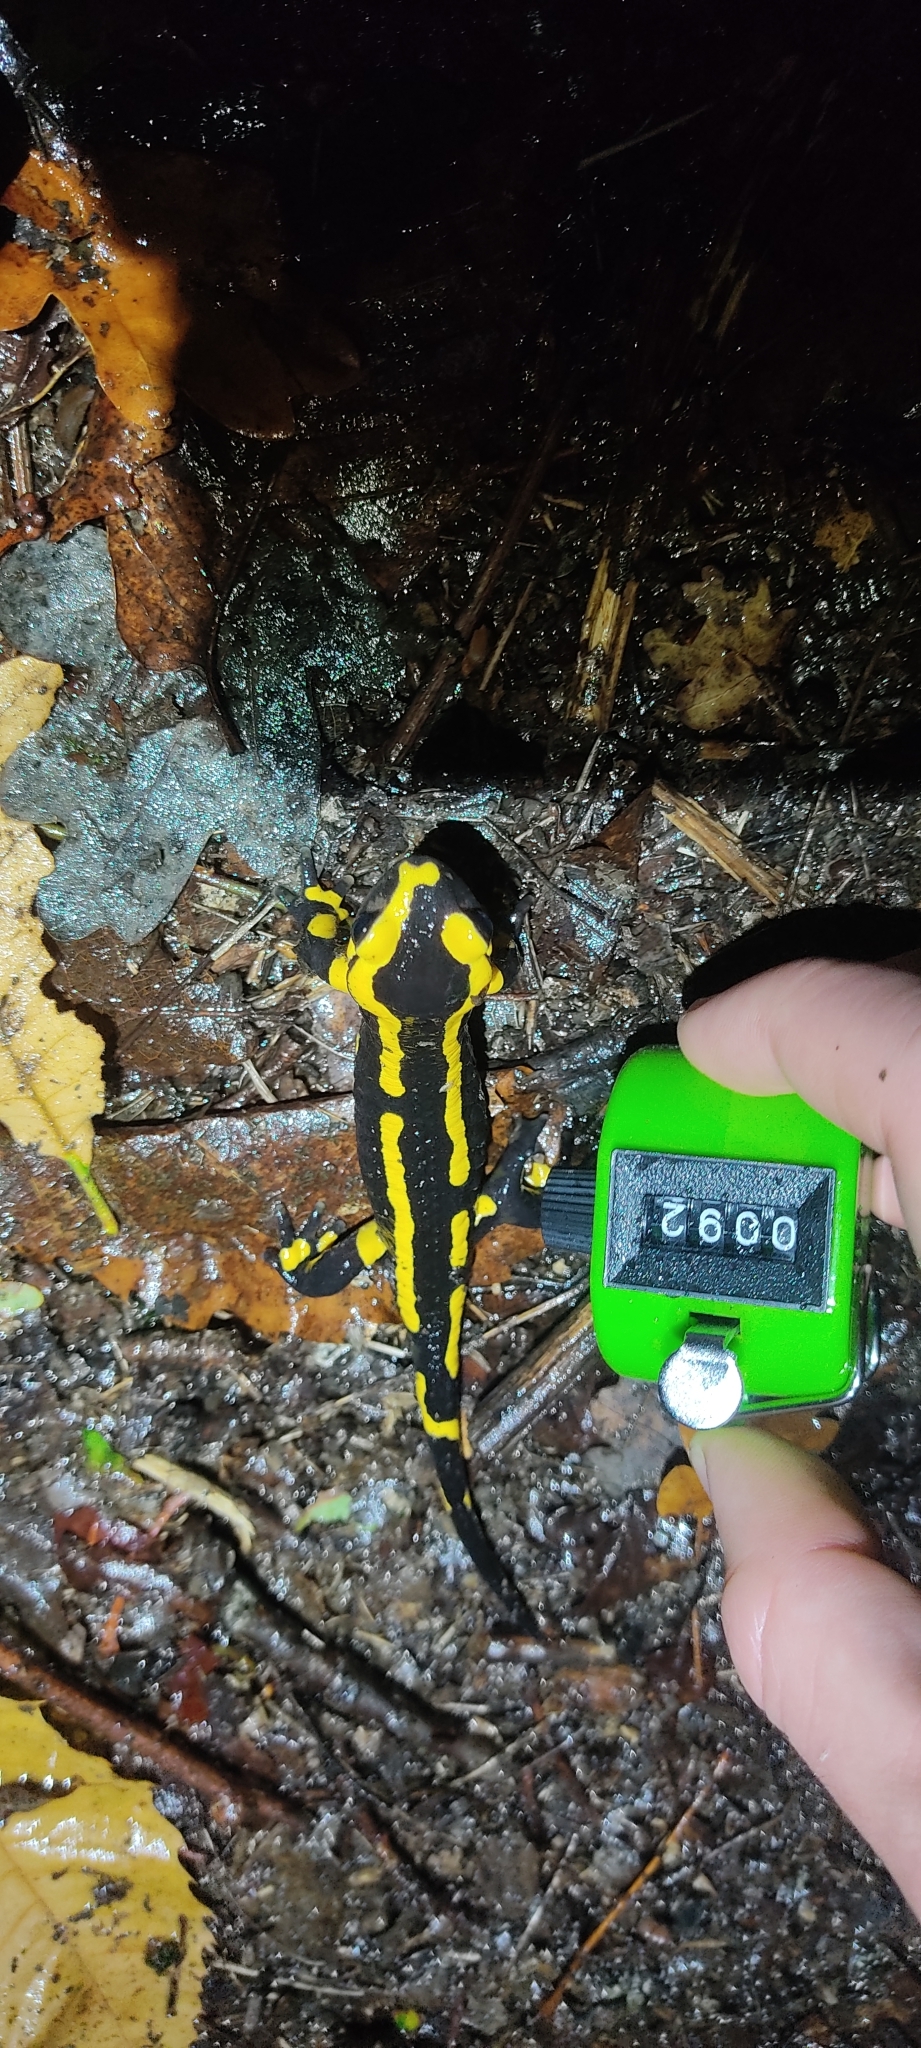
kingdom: Animalia
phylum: Chordata
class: Amphibia
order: Caudata
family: Salamandridae
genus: Salamandra
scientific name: Salamandra salamandra
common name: Fire salamander
